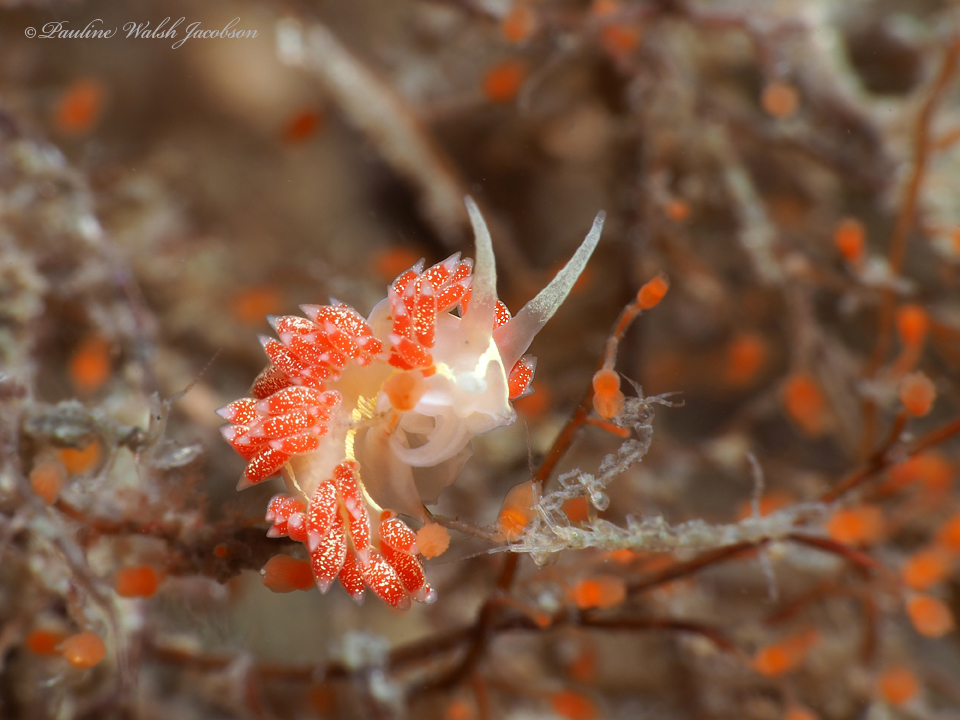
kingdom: Animalia
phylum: Mollusca
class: Gastropoda
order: Nudibranchia
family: Coryphellidae
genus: Coryphella
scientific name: Coryphella verta
